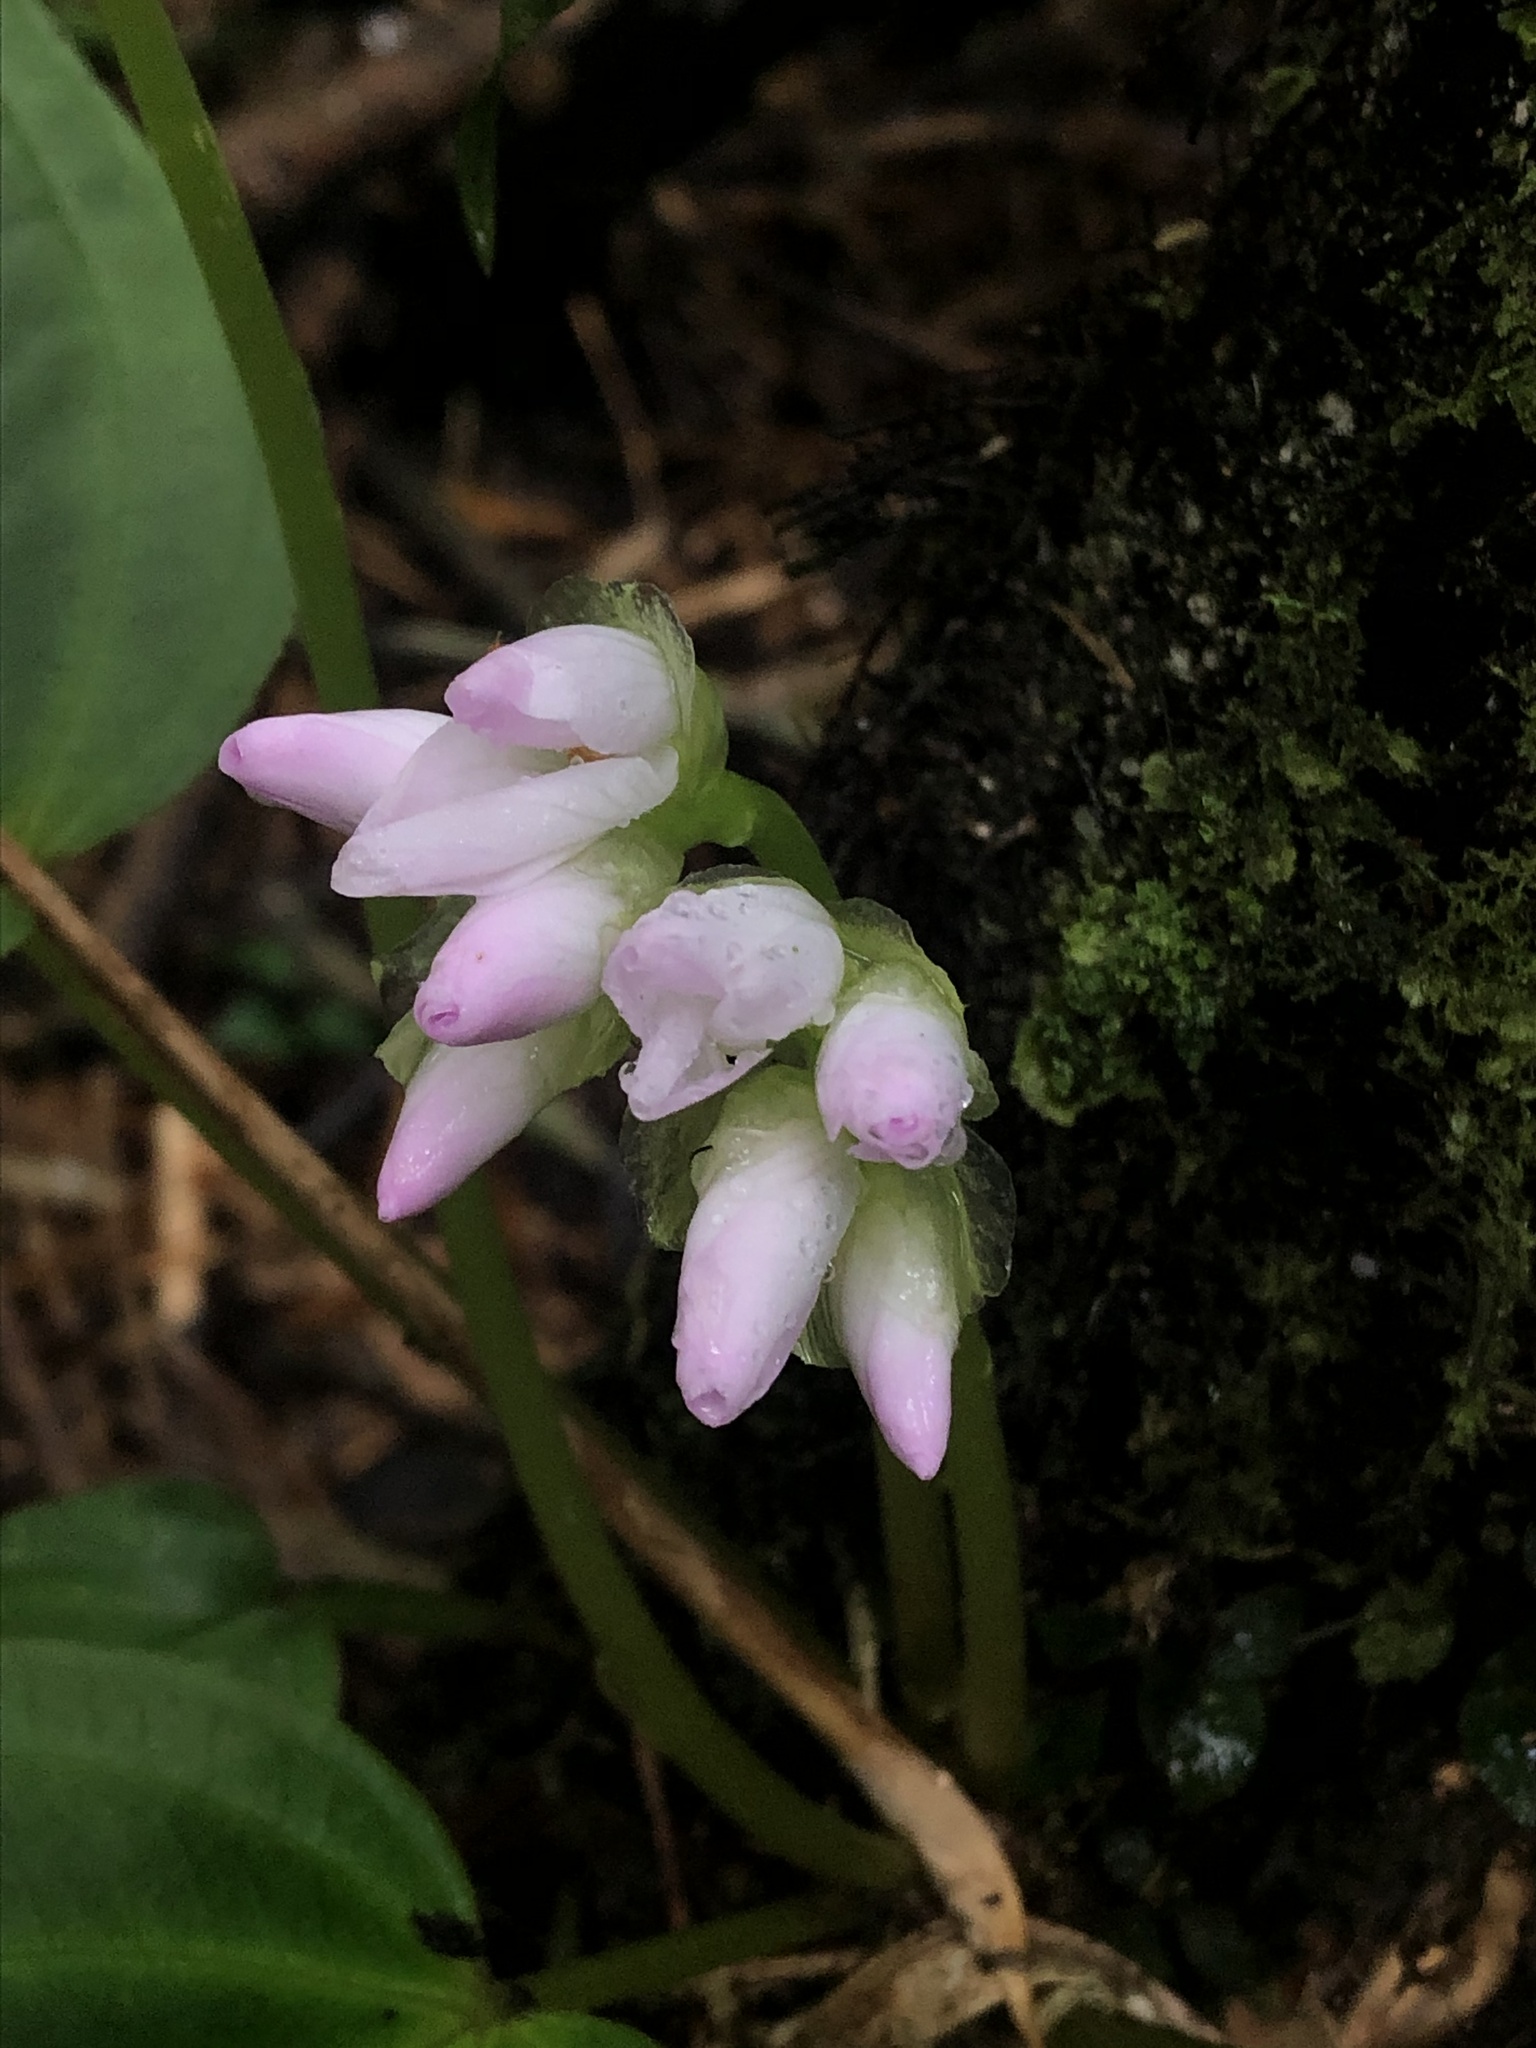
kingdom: Plantae
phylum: Tracheophyta
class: Magnoliopsida
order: Myrtales
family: Melastomataceae
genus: Monolena
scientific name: Monolena primuliflora
